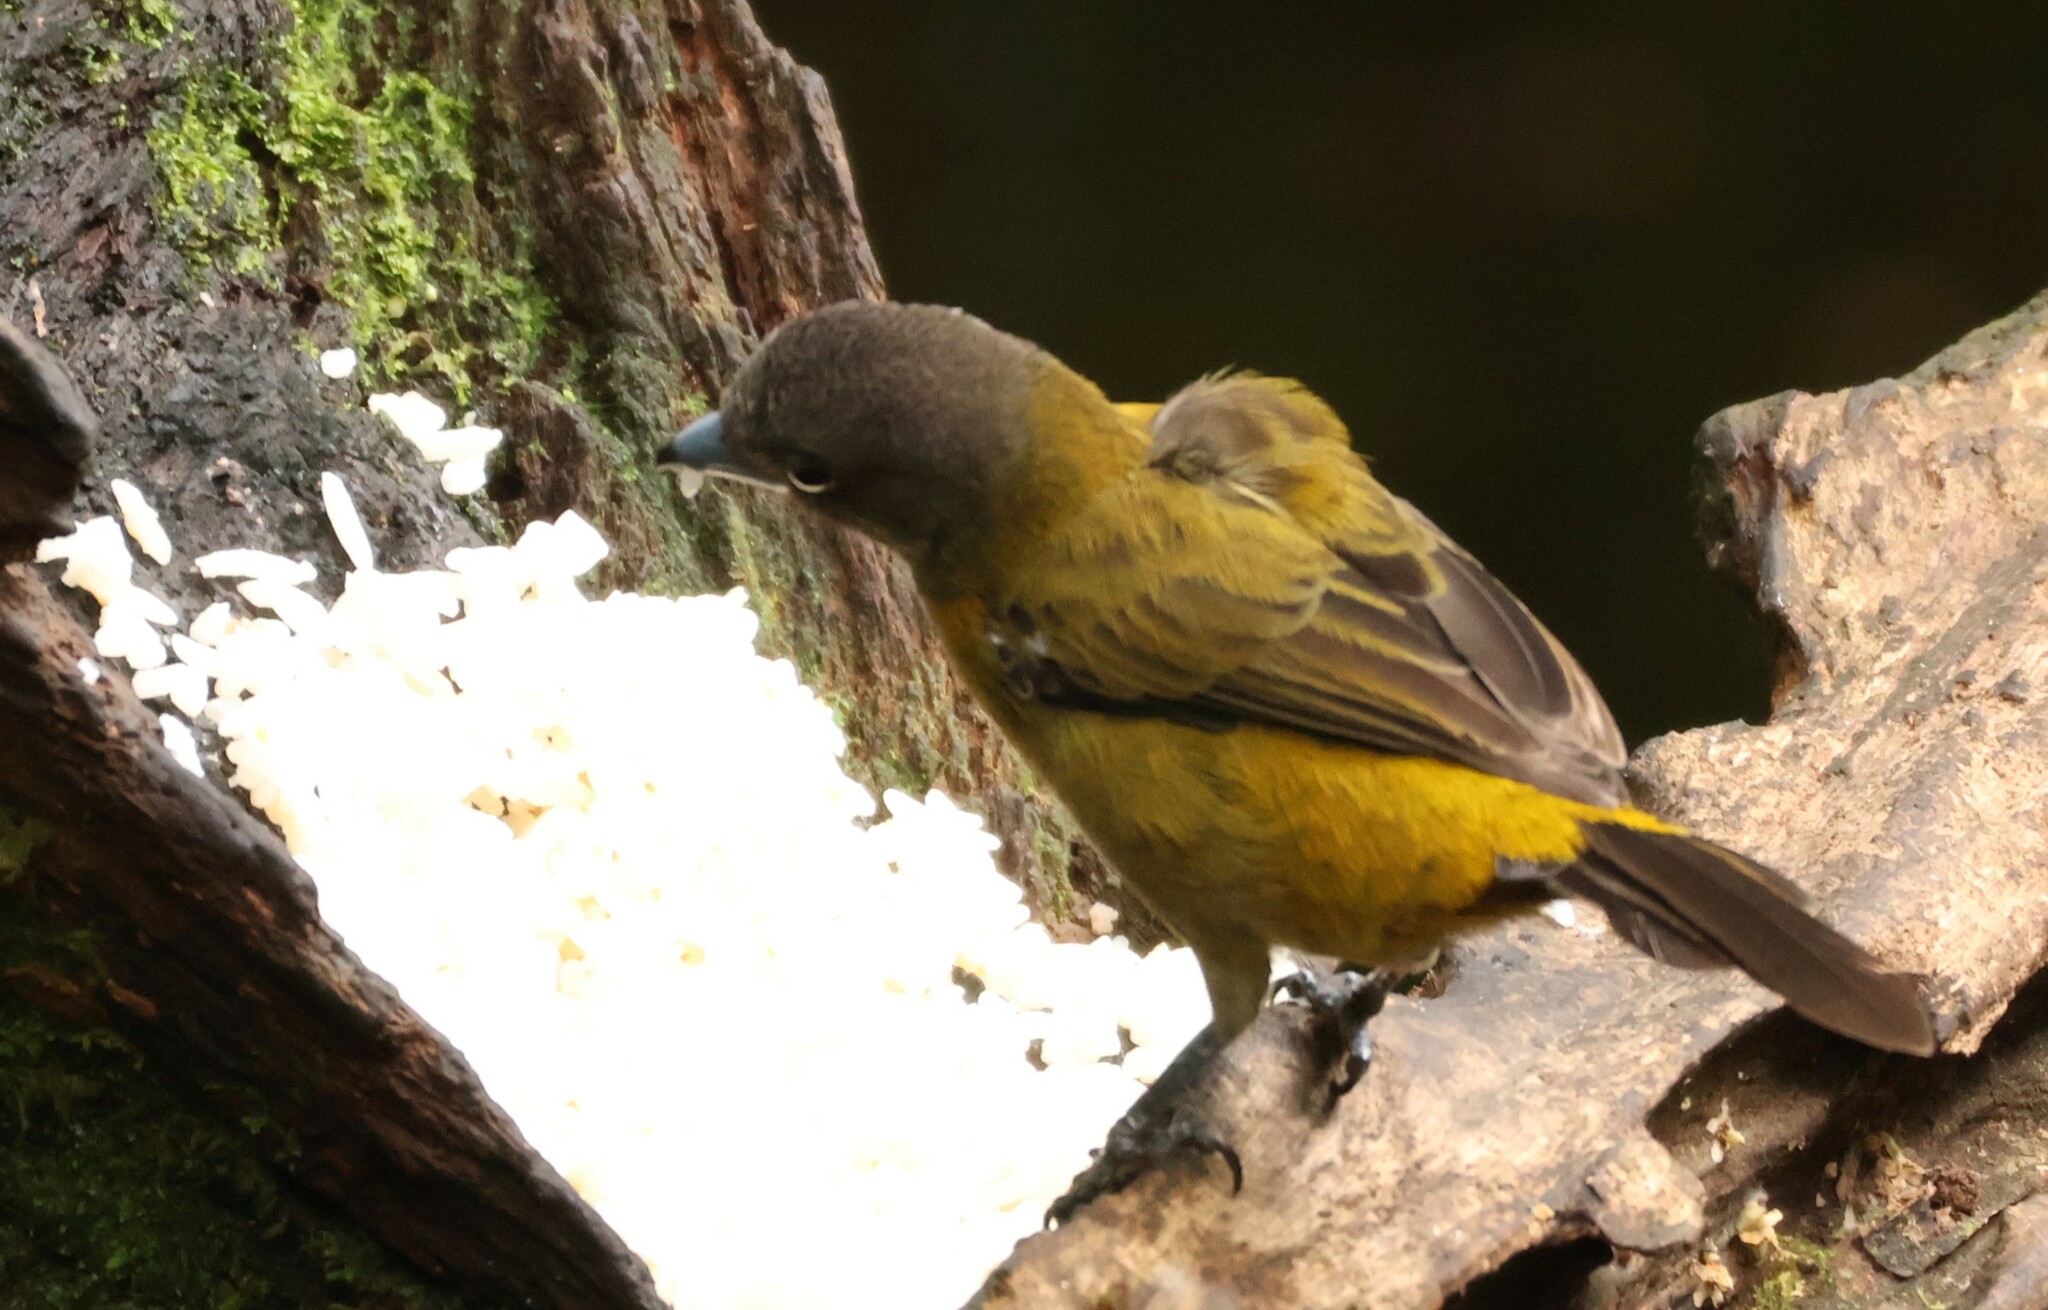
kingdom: Animalia
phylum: Chordata
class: Aves
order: Passeriformes
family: Thraupidae
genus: Ramphocelus
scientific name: Ramphocelus passerinii
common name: Passerini's tanager
